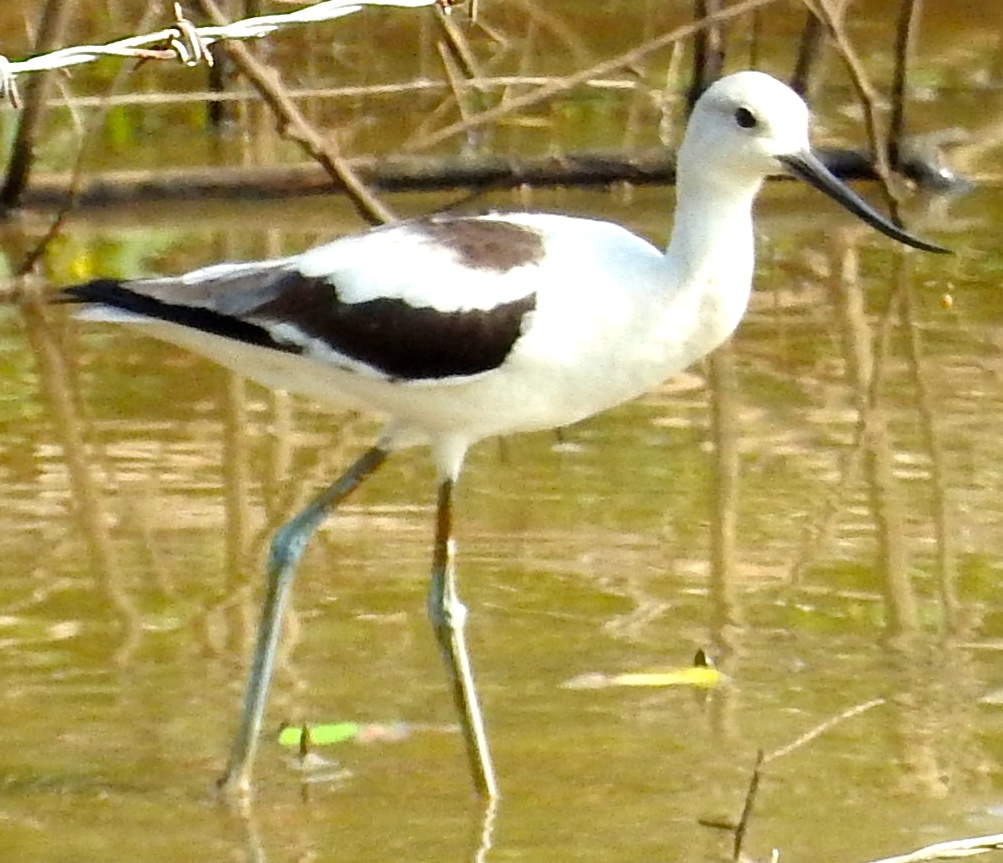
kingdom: Animalia
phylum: Chordata
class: Aves
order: Charadriiformes
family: Recurvirostridae
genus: Recurvirostra
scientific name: Recurvirostra americana
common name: American avocet
